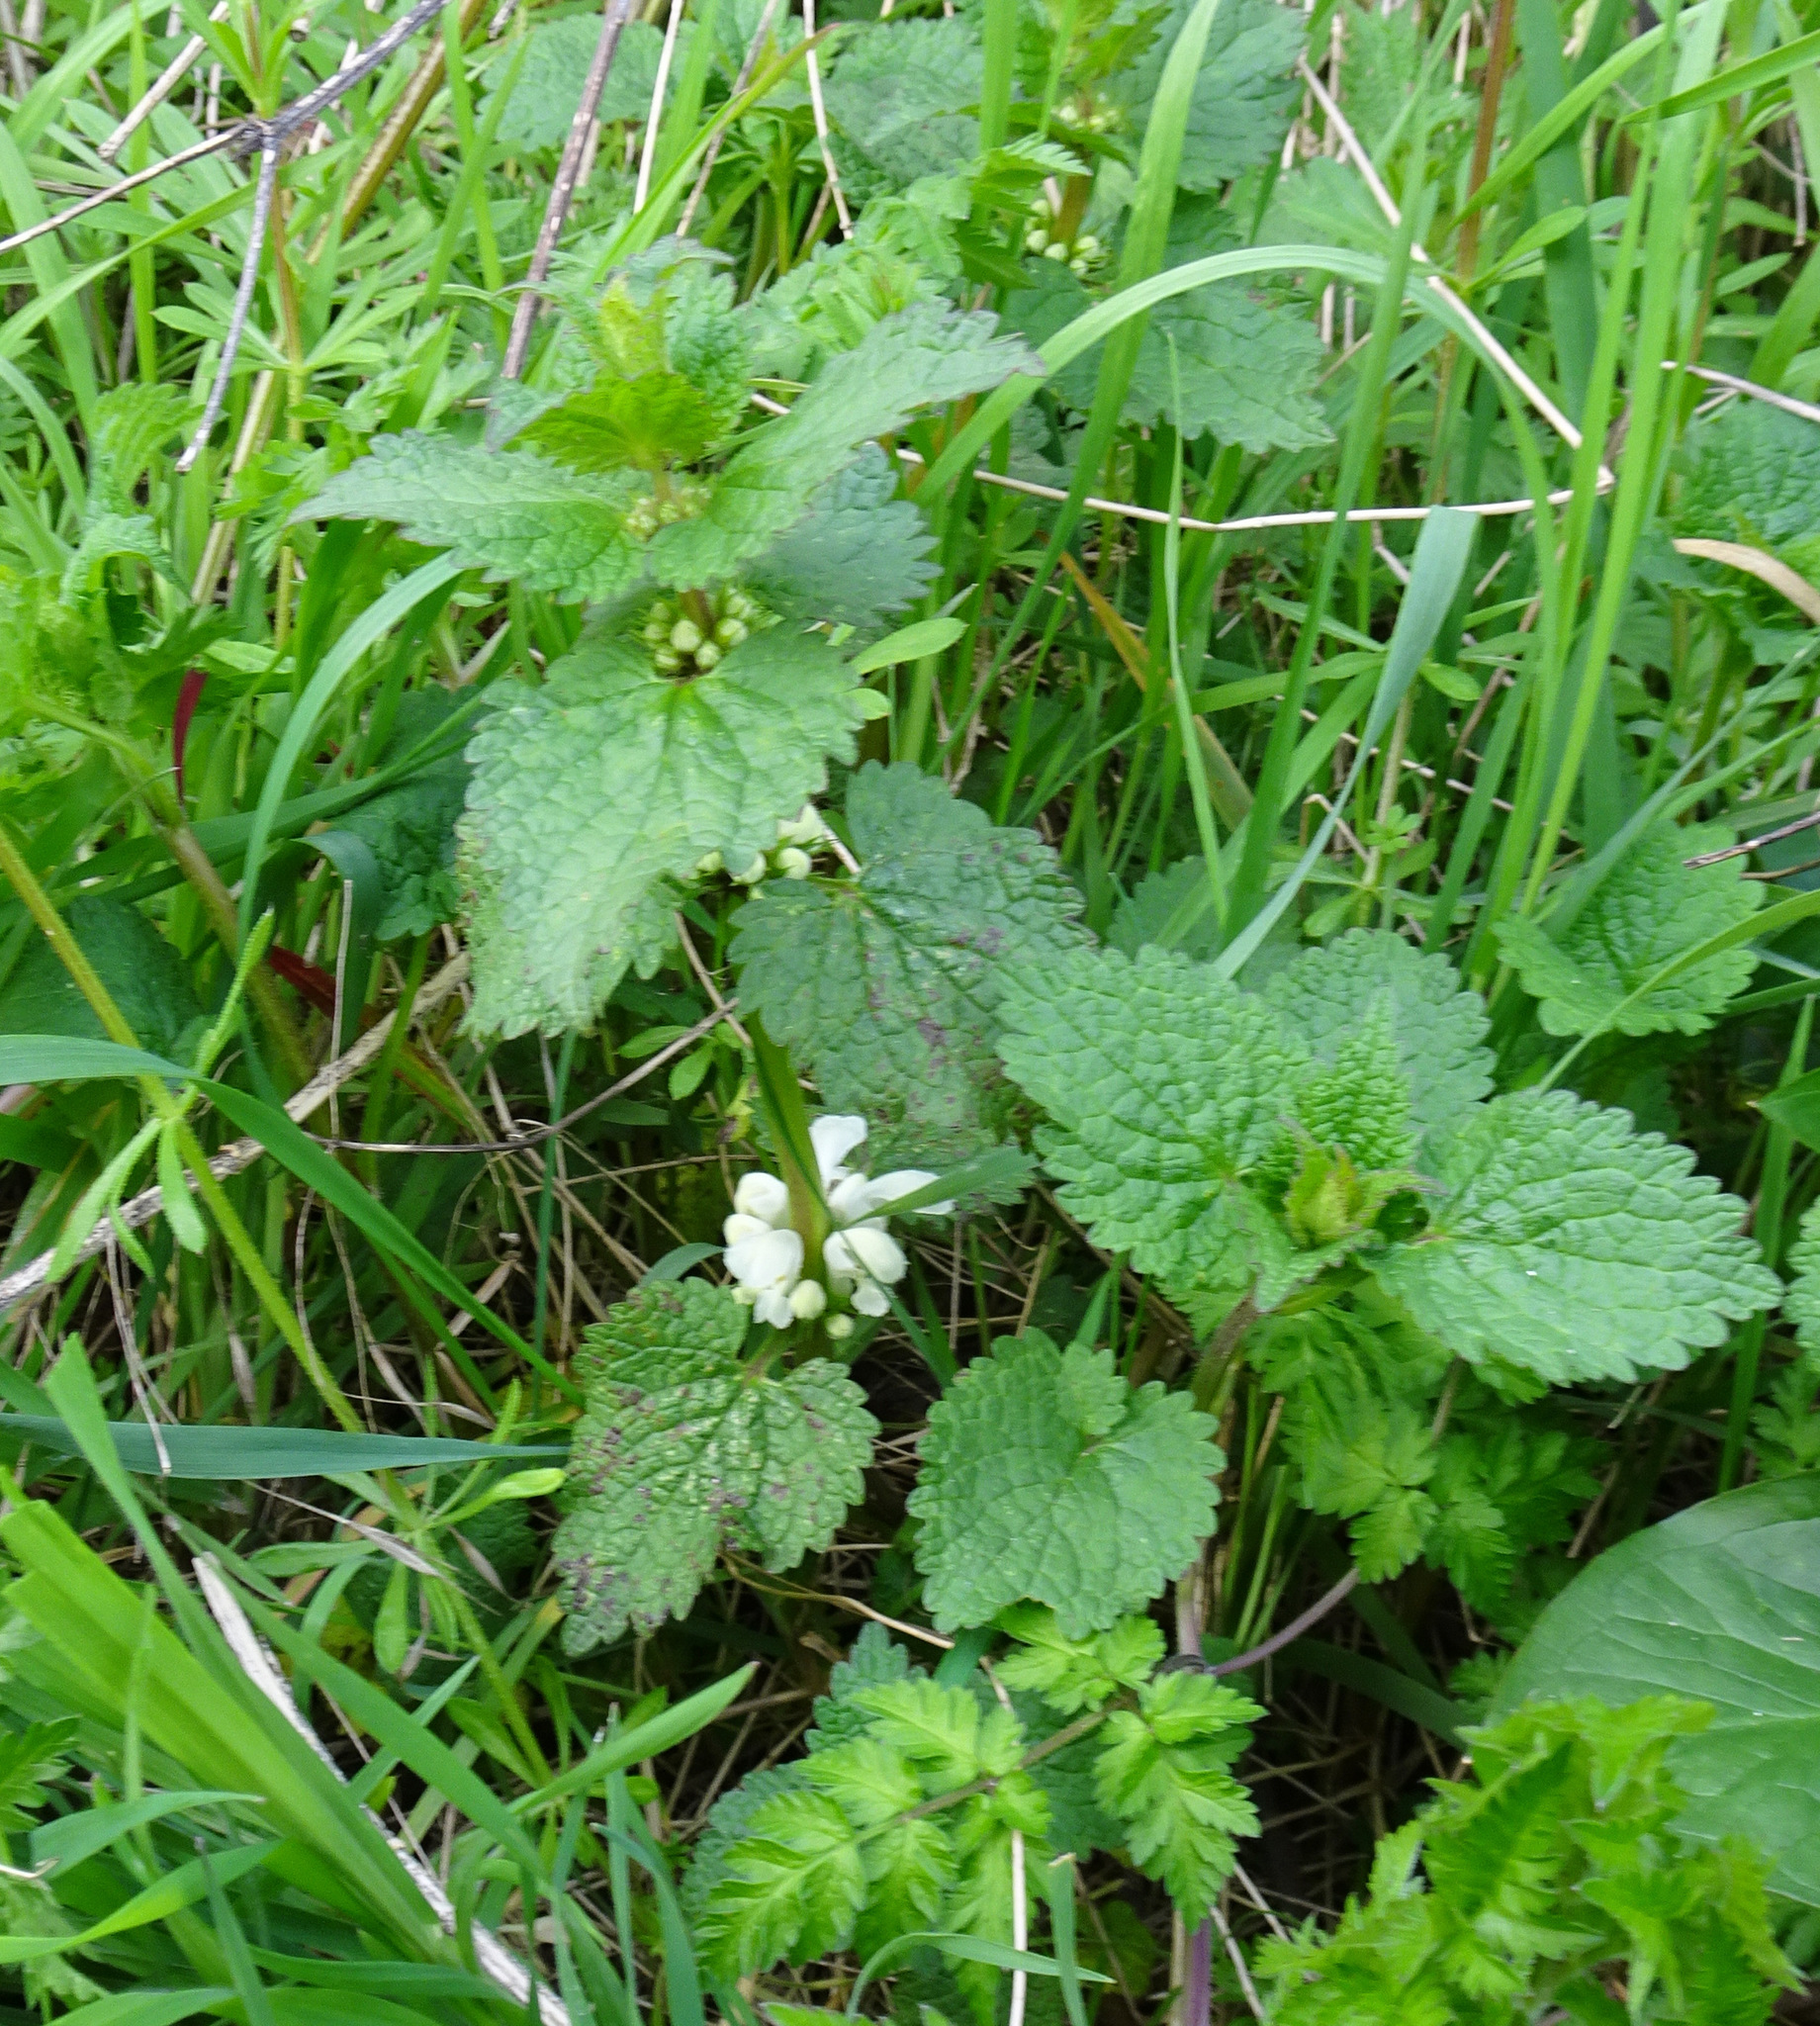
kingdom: Plantae
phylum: Tracheophyta
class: Magnoliopsida
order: Lamiales
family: Lamiaceae
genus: Lamium
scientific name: Lamium album
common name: White dead-nettle
